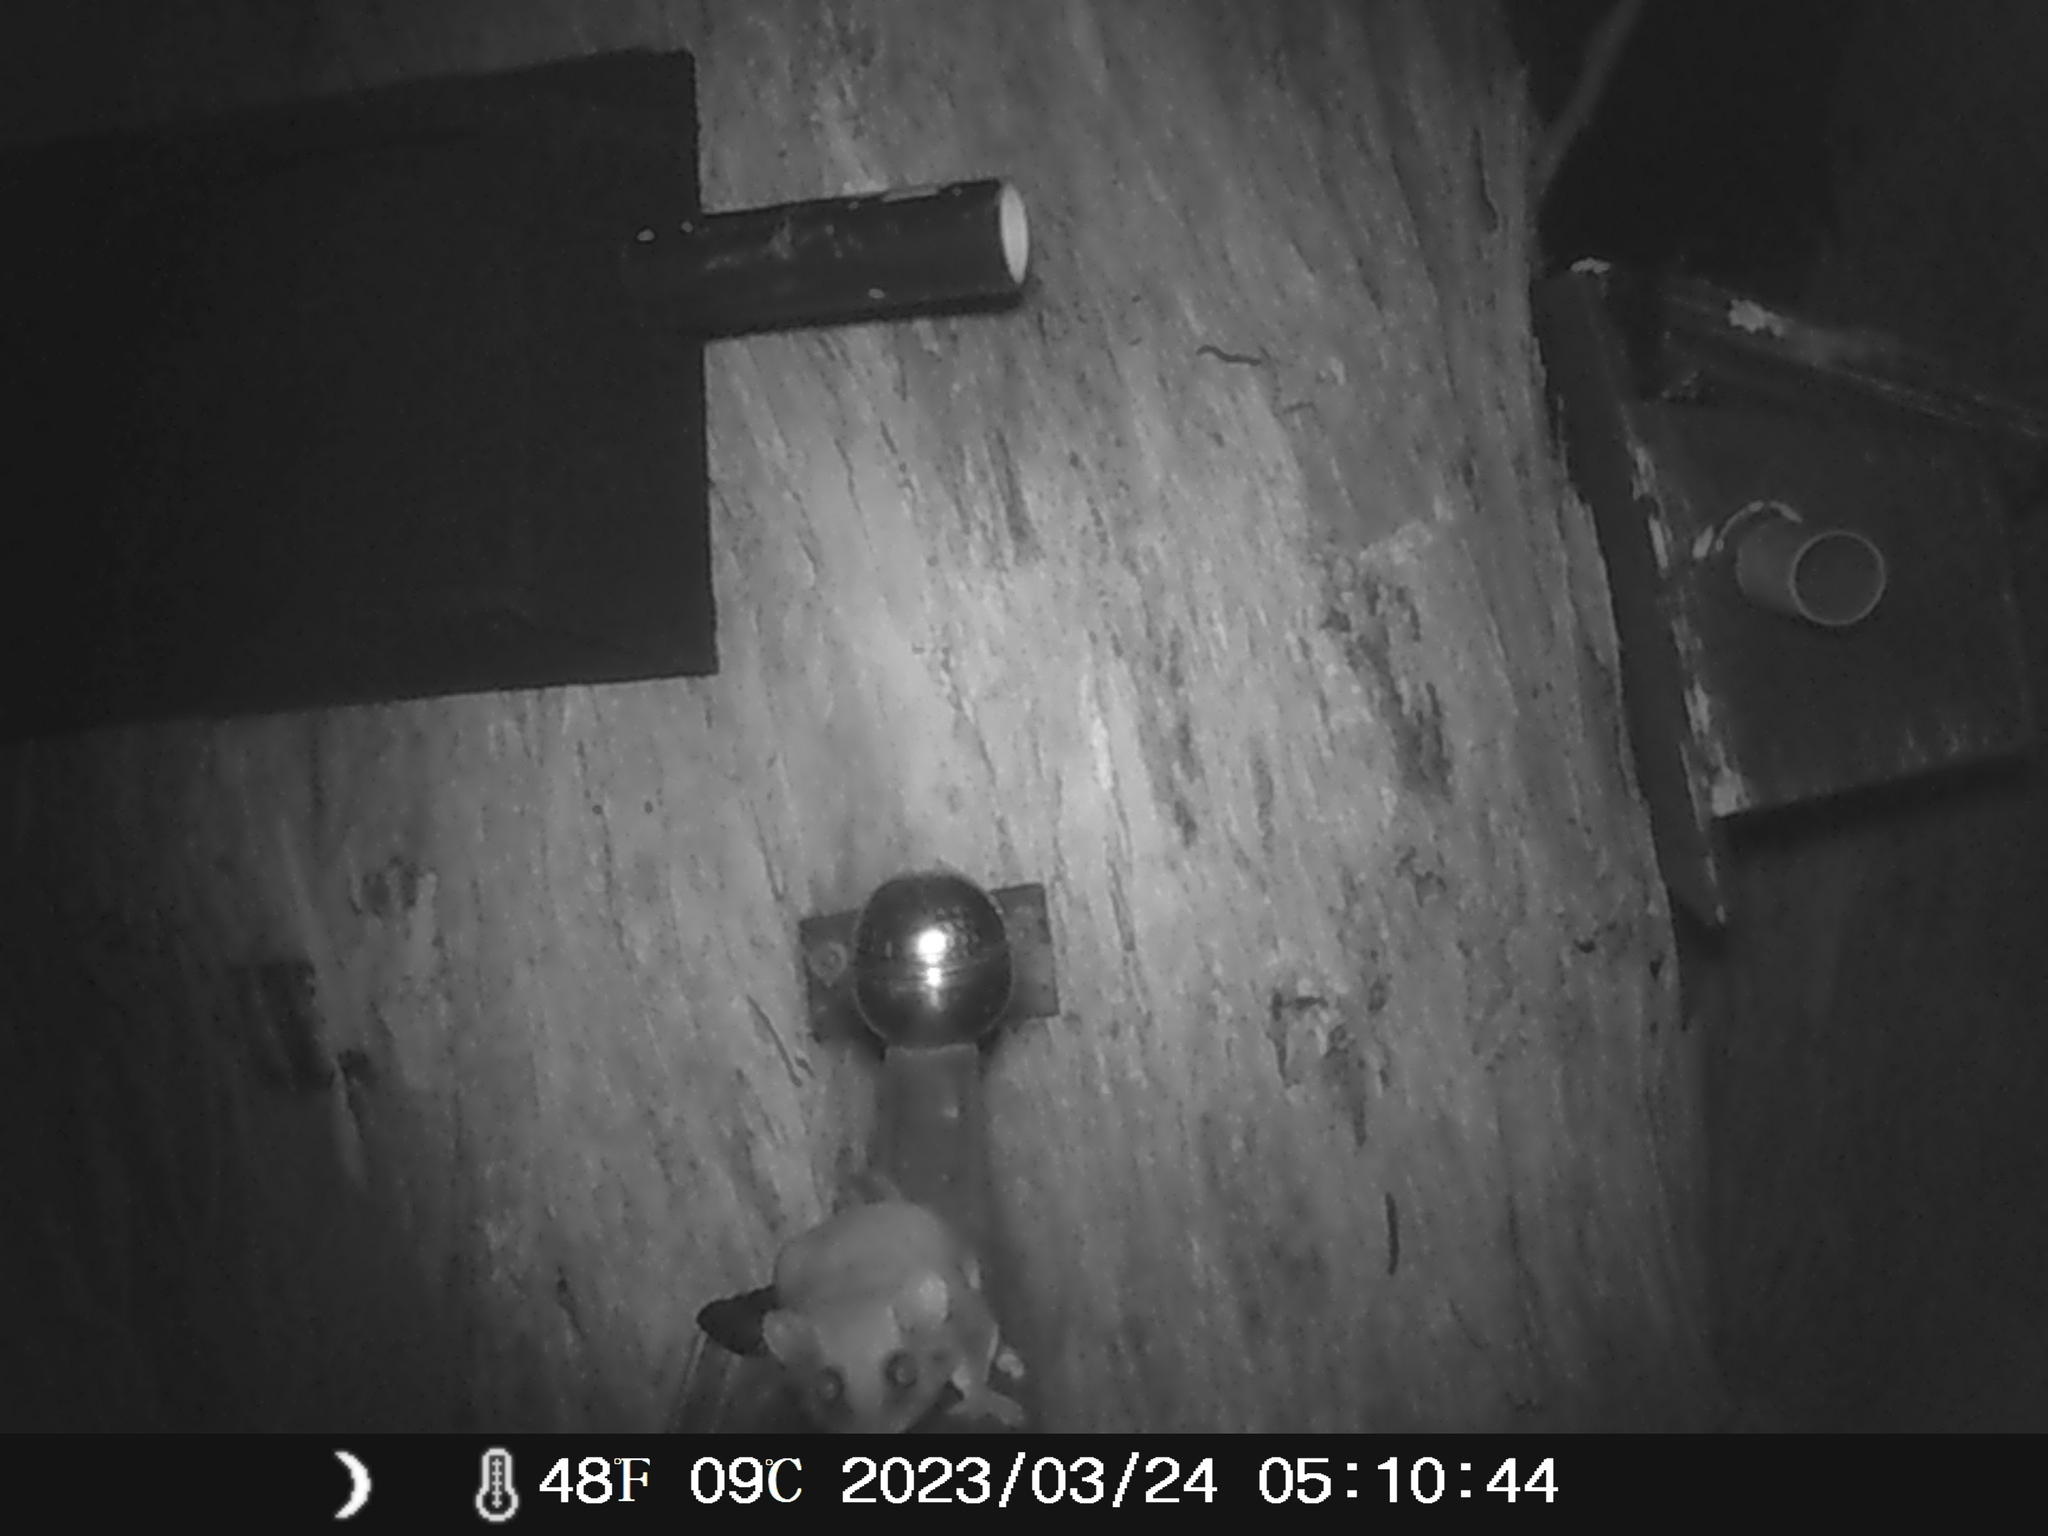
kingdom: Animalia
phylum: Chordata
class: Mammalia
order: Diprotodontia
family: Acrobatidae
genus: Acrobates
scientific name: Acrobates pygmaeus
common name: Feathertail glider
